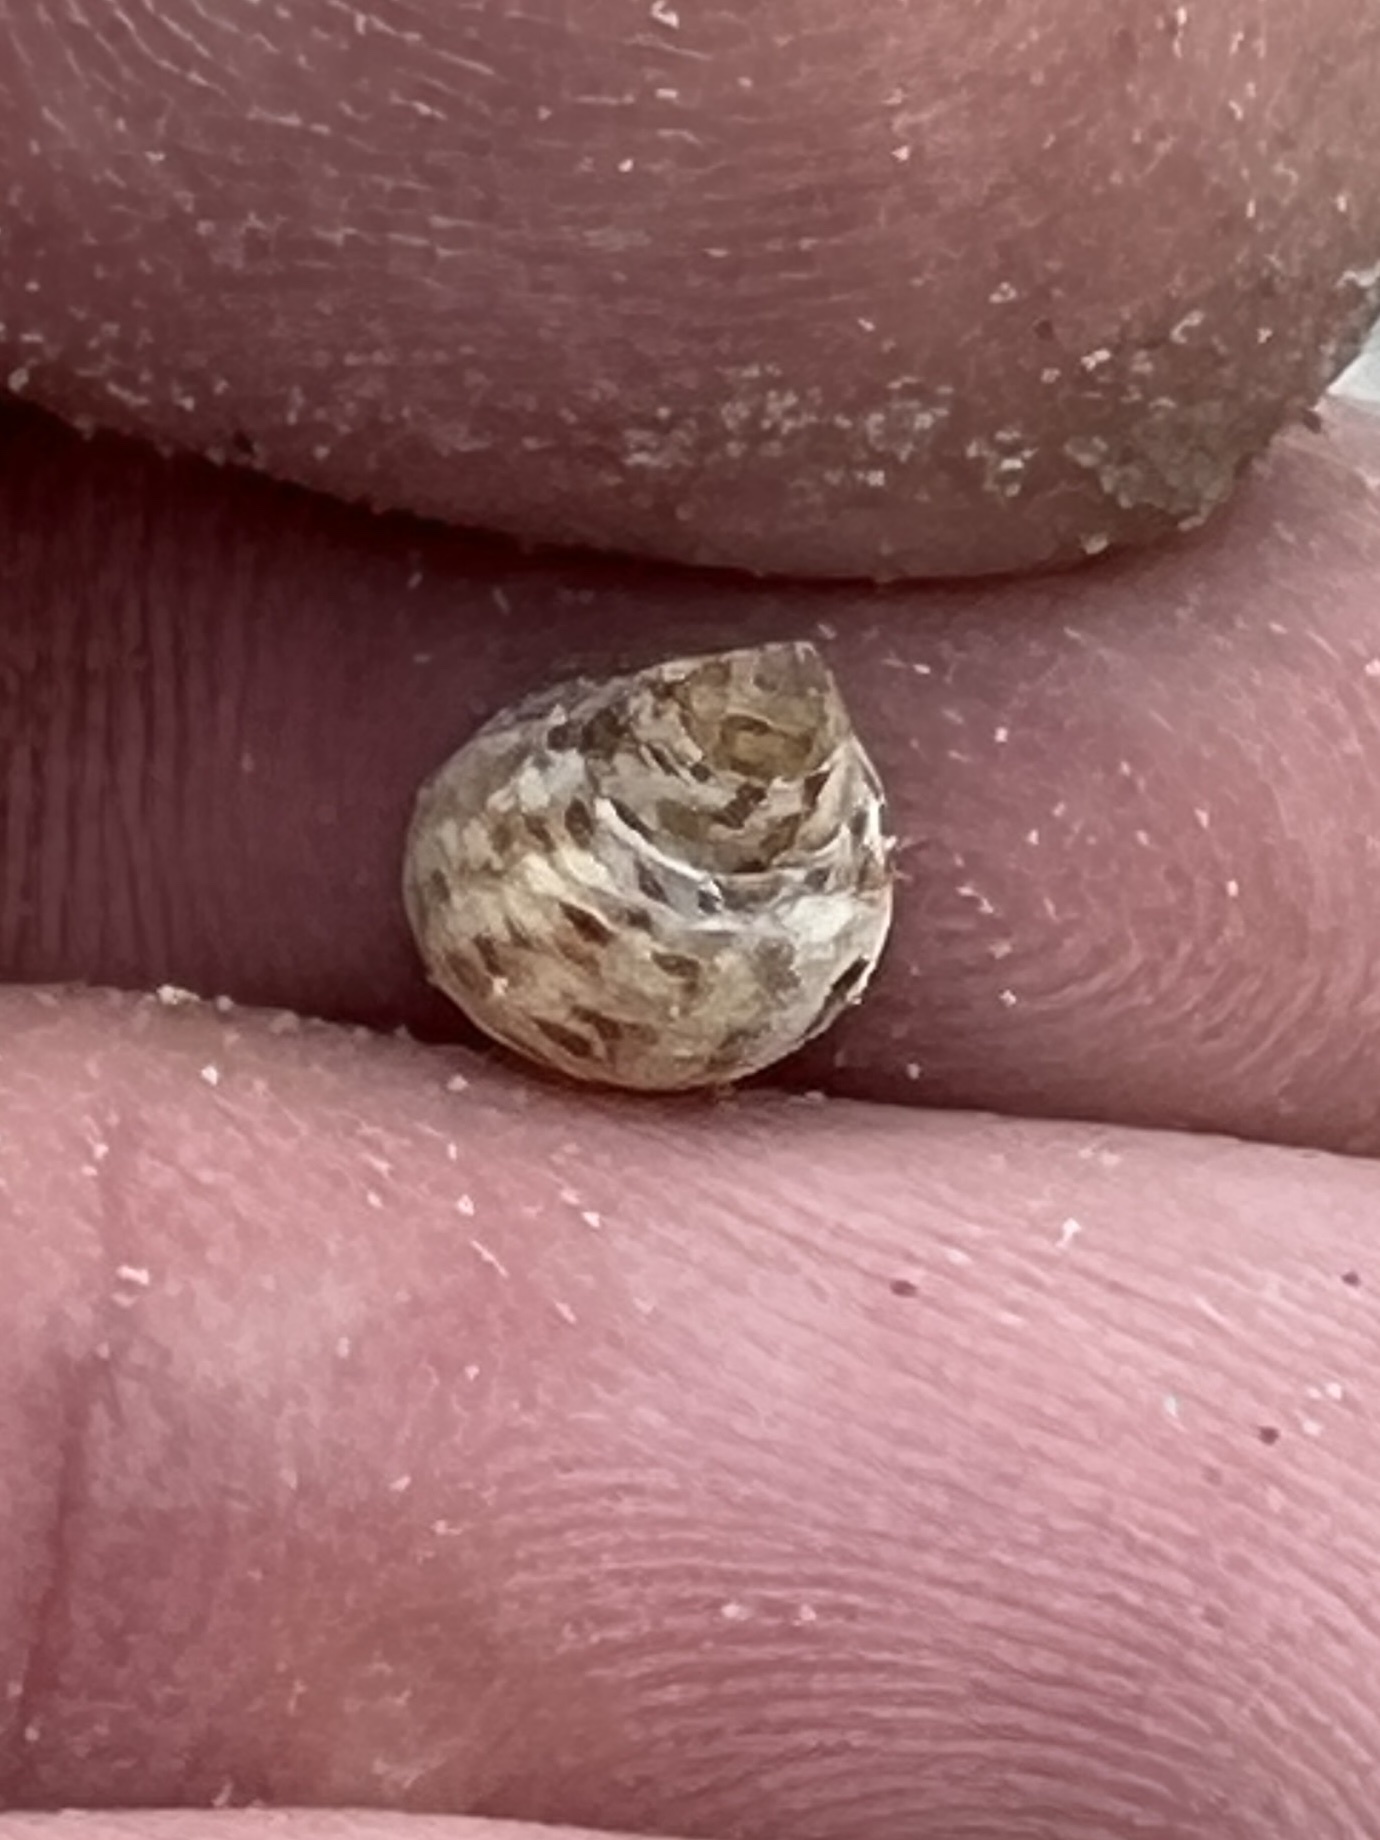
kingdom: Animalia
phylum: Mollusca
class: Gastropoda
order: Littorinimorpha
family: Littorinidae
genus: Littoraria
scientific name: Littoraria irrorata
